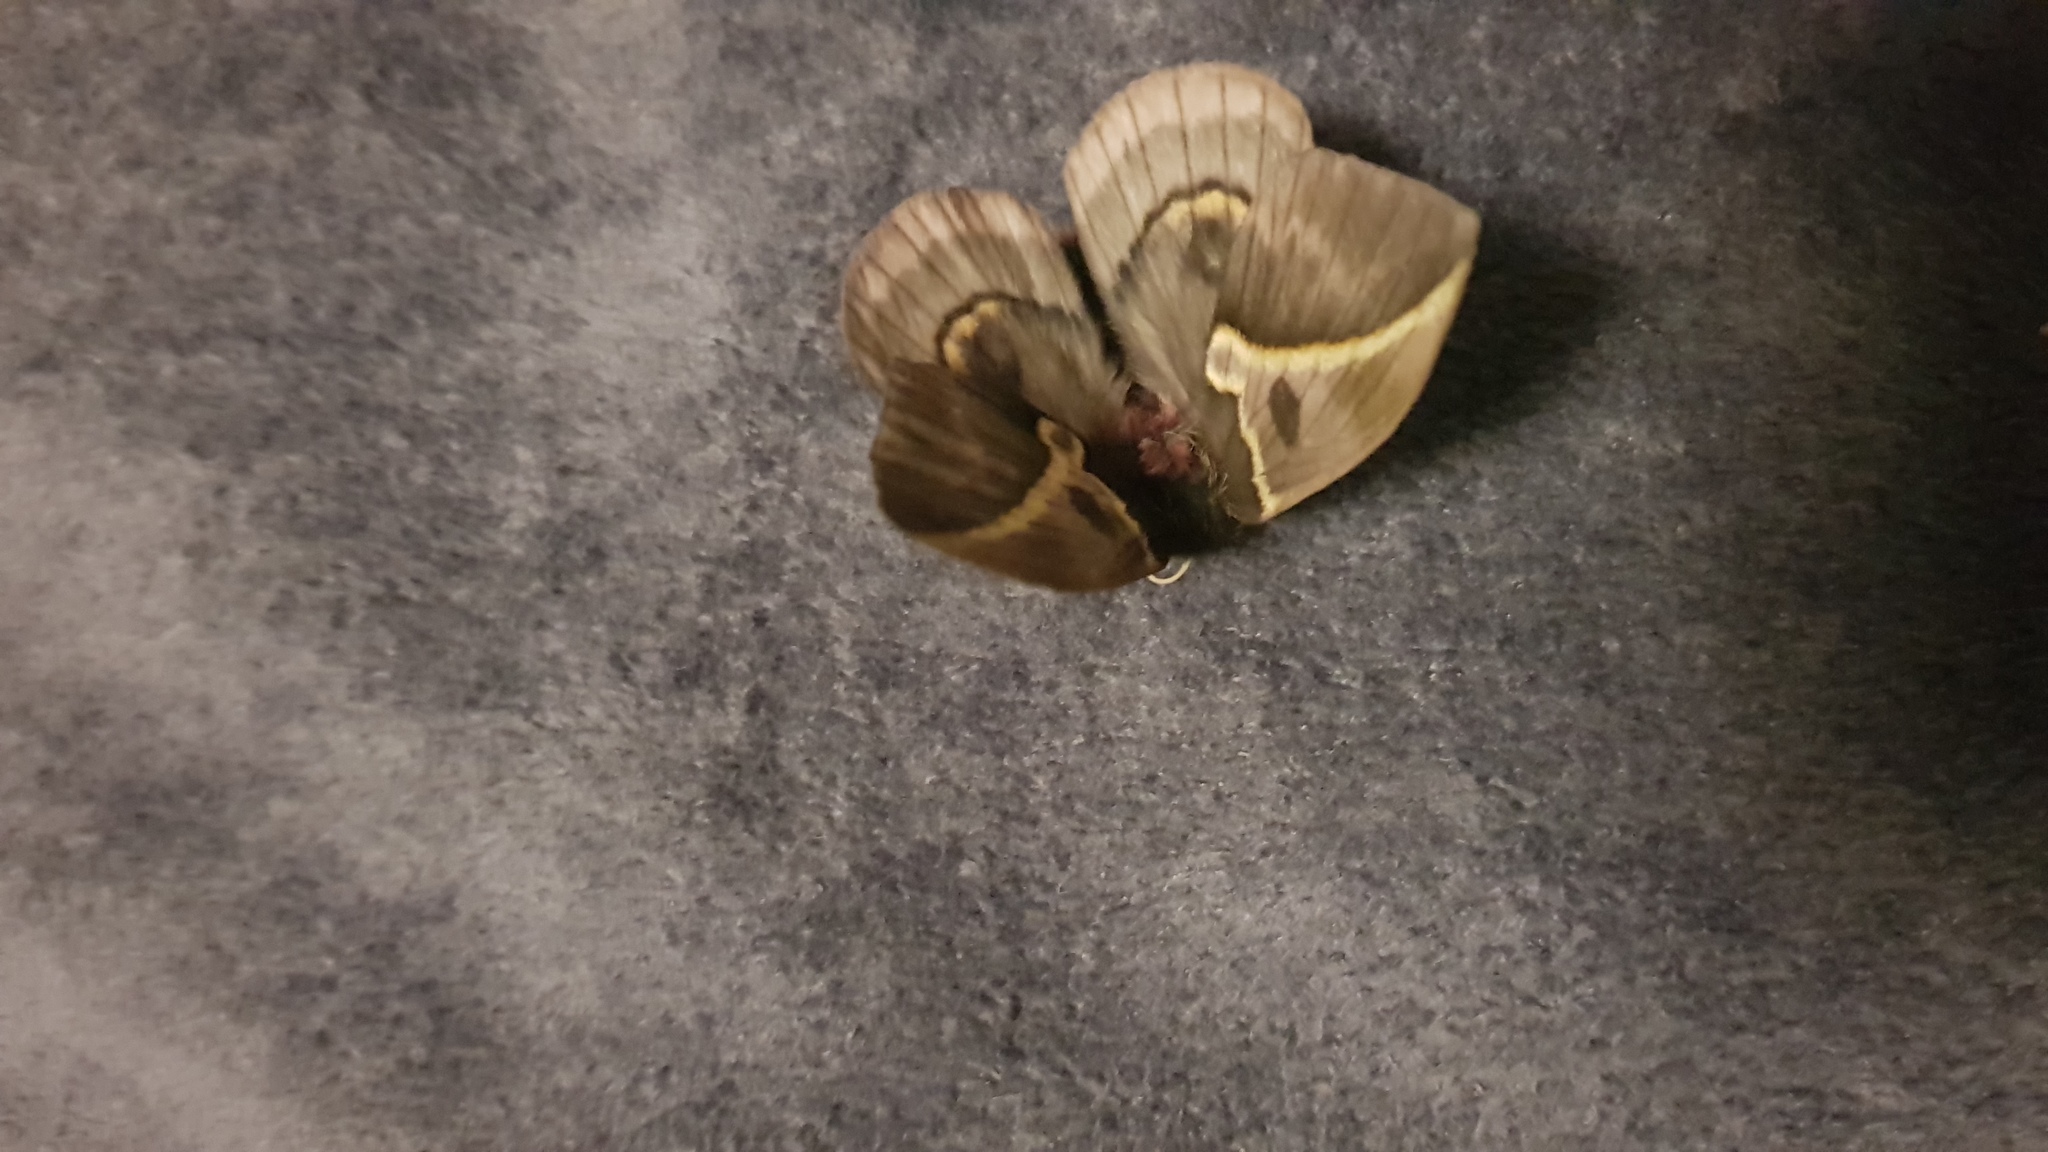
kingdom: Animalia
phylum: Arthropoda
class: Insecta
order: Lepidoptera
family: Saturniidae
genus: Automeris
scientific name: Automeris maeonia
